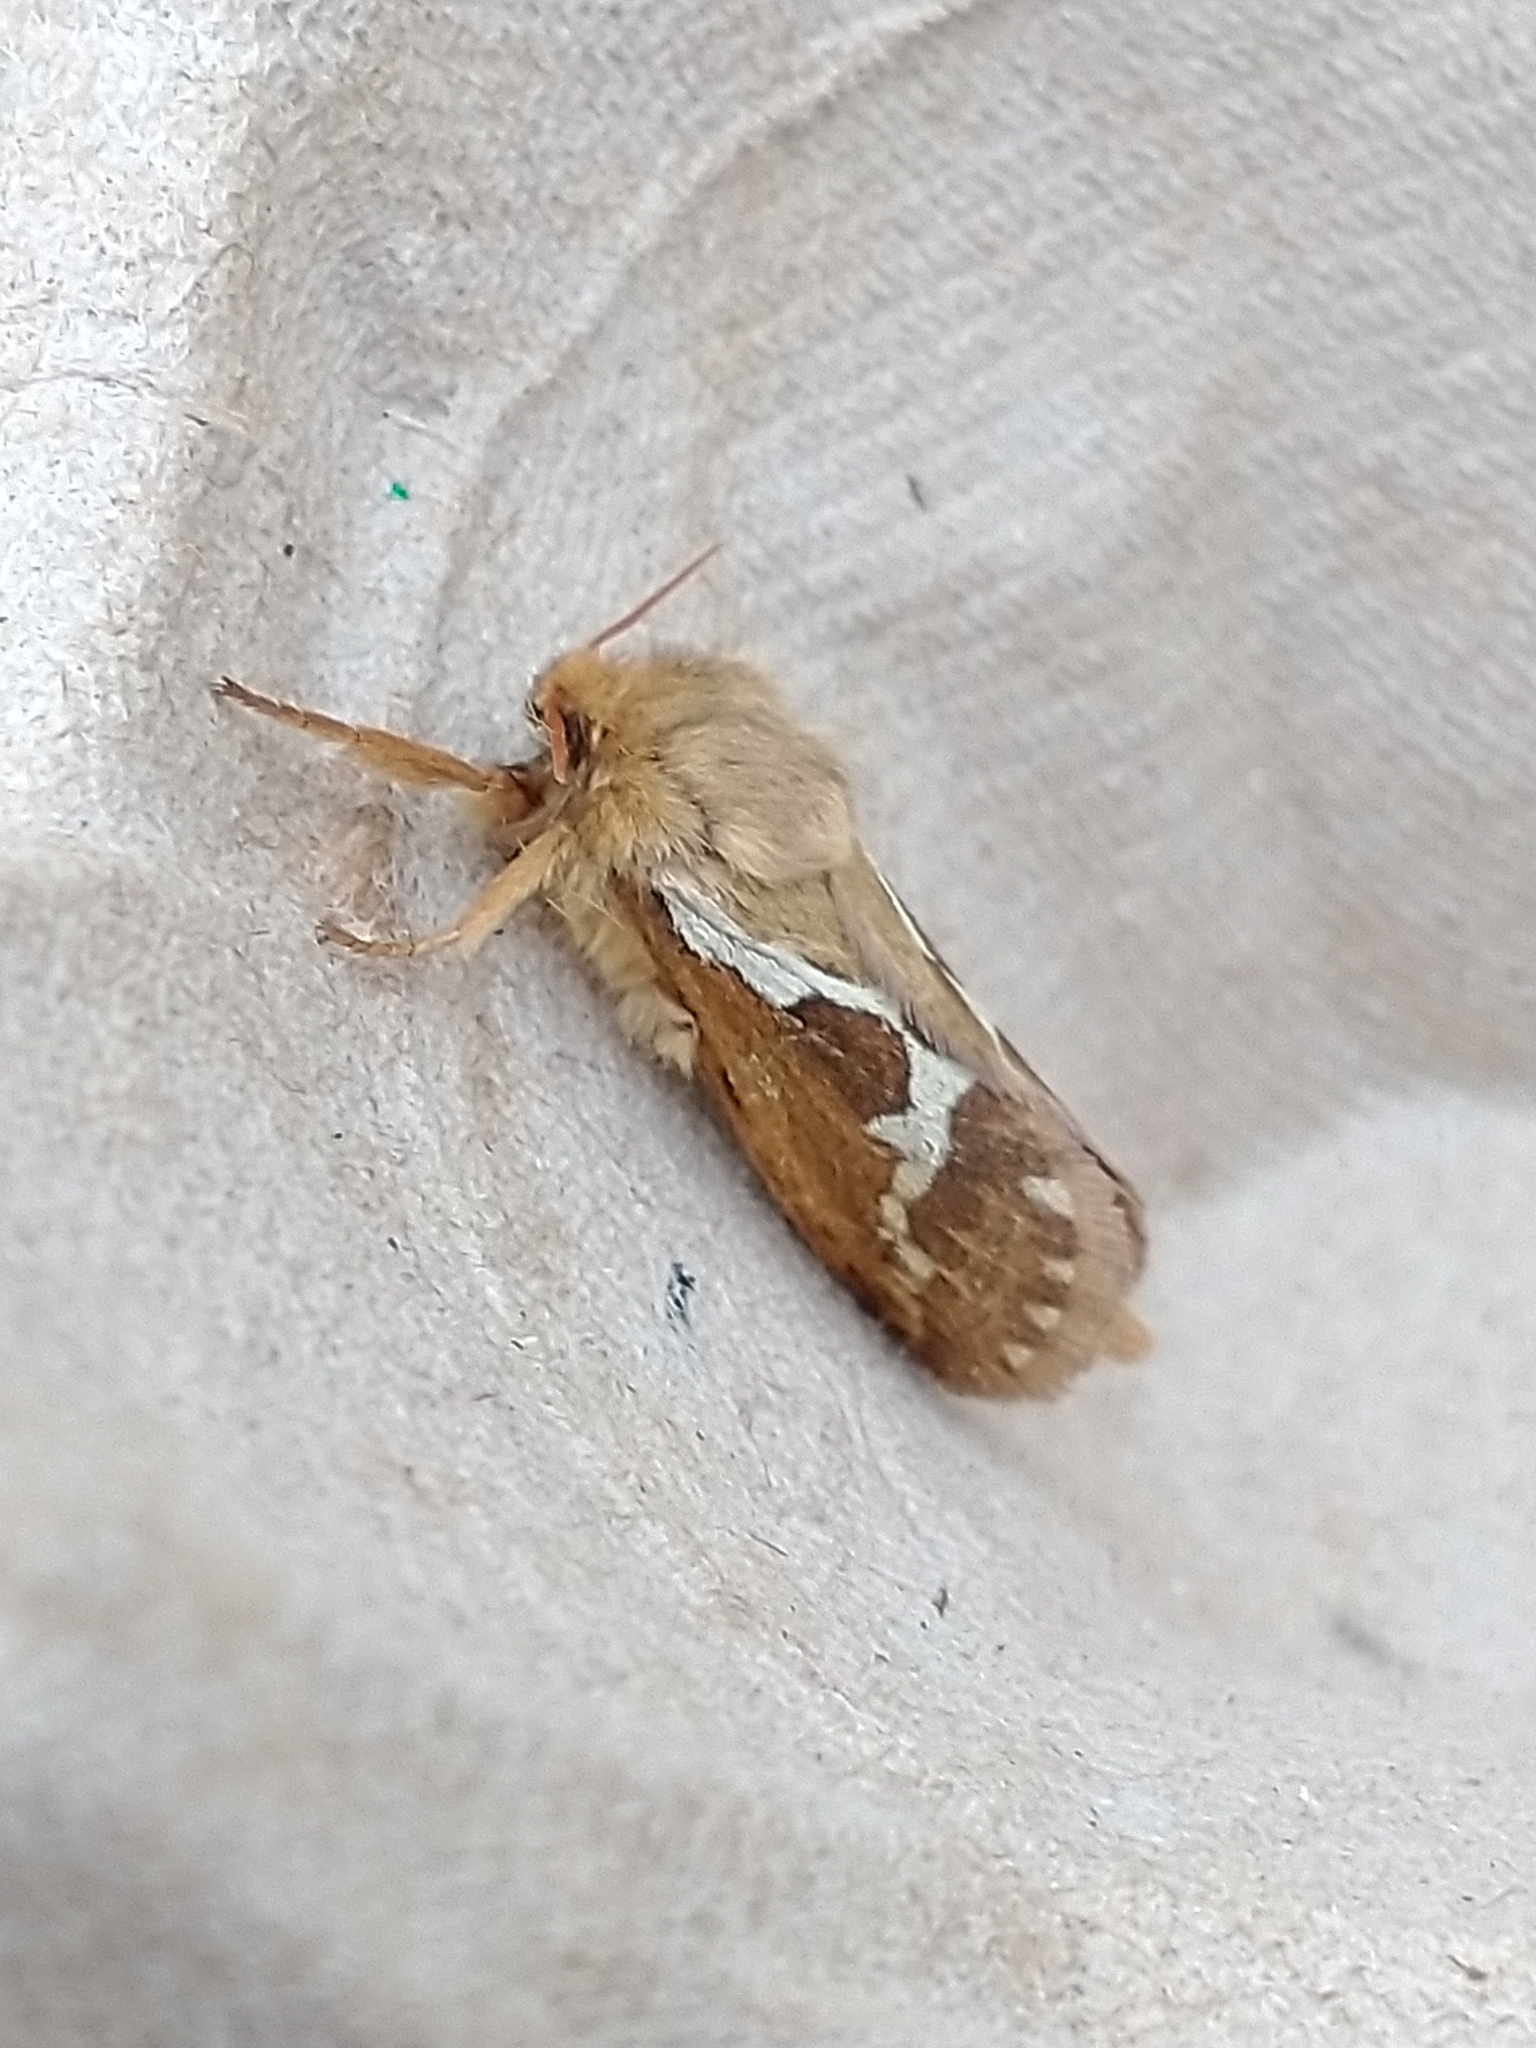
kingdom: Animalia
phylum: Arthropoda
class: Insecta
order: Lepidoptera
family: Hepialidae
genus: Korscheltellus
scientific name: Korscheltellus lupulina
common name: Common swift
